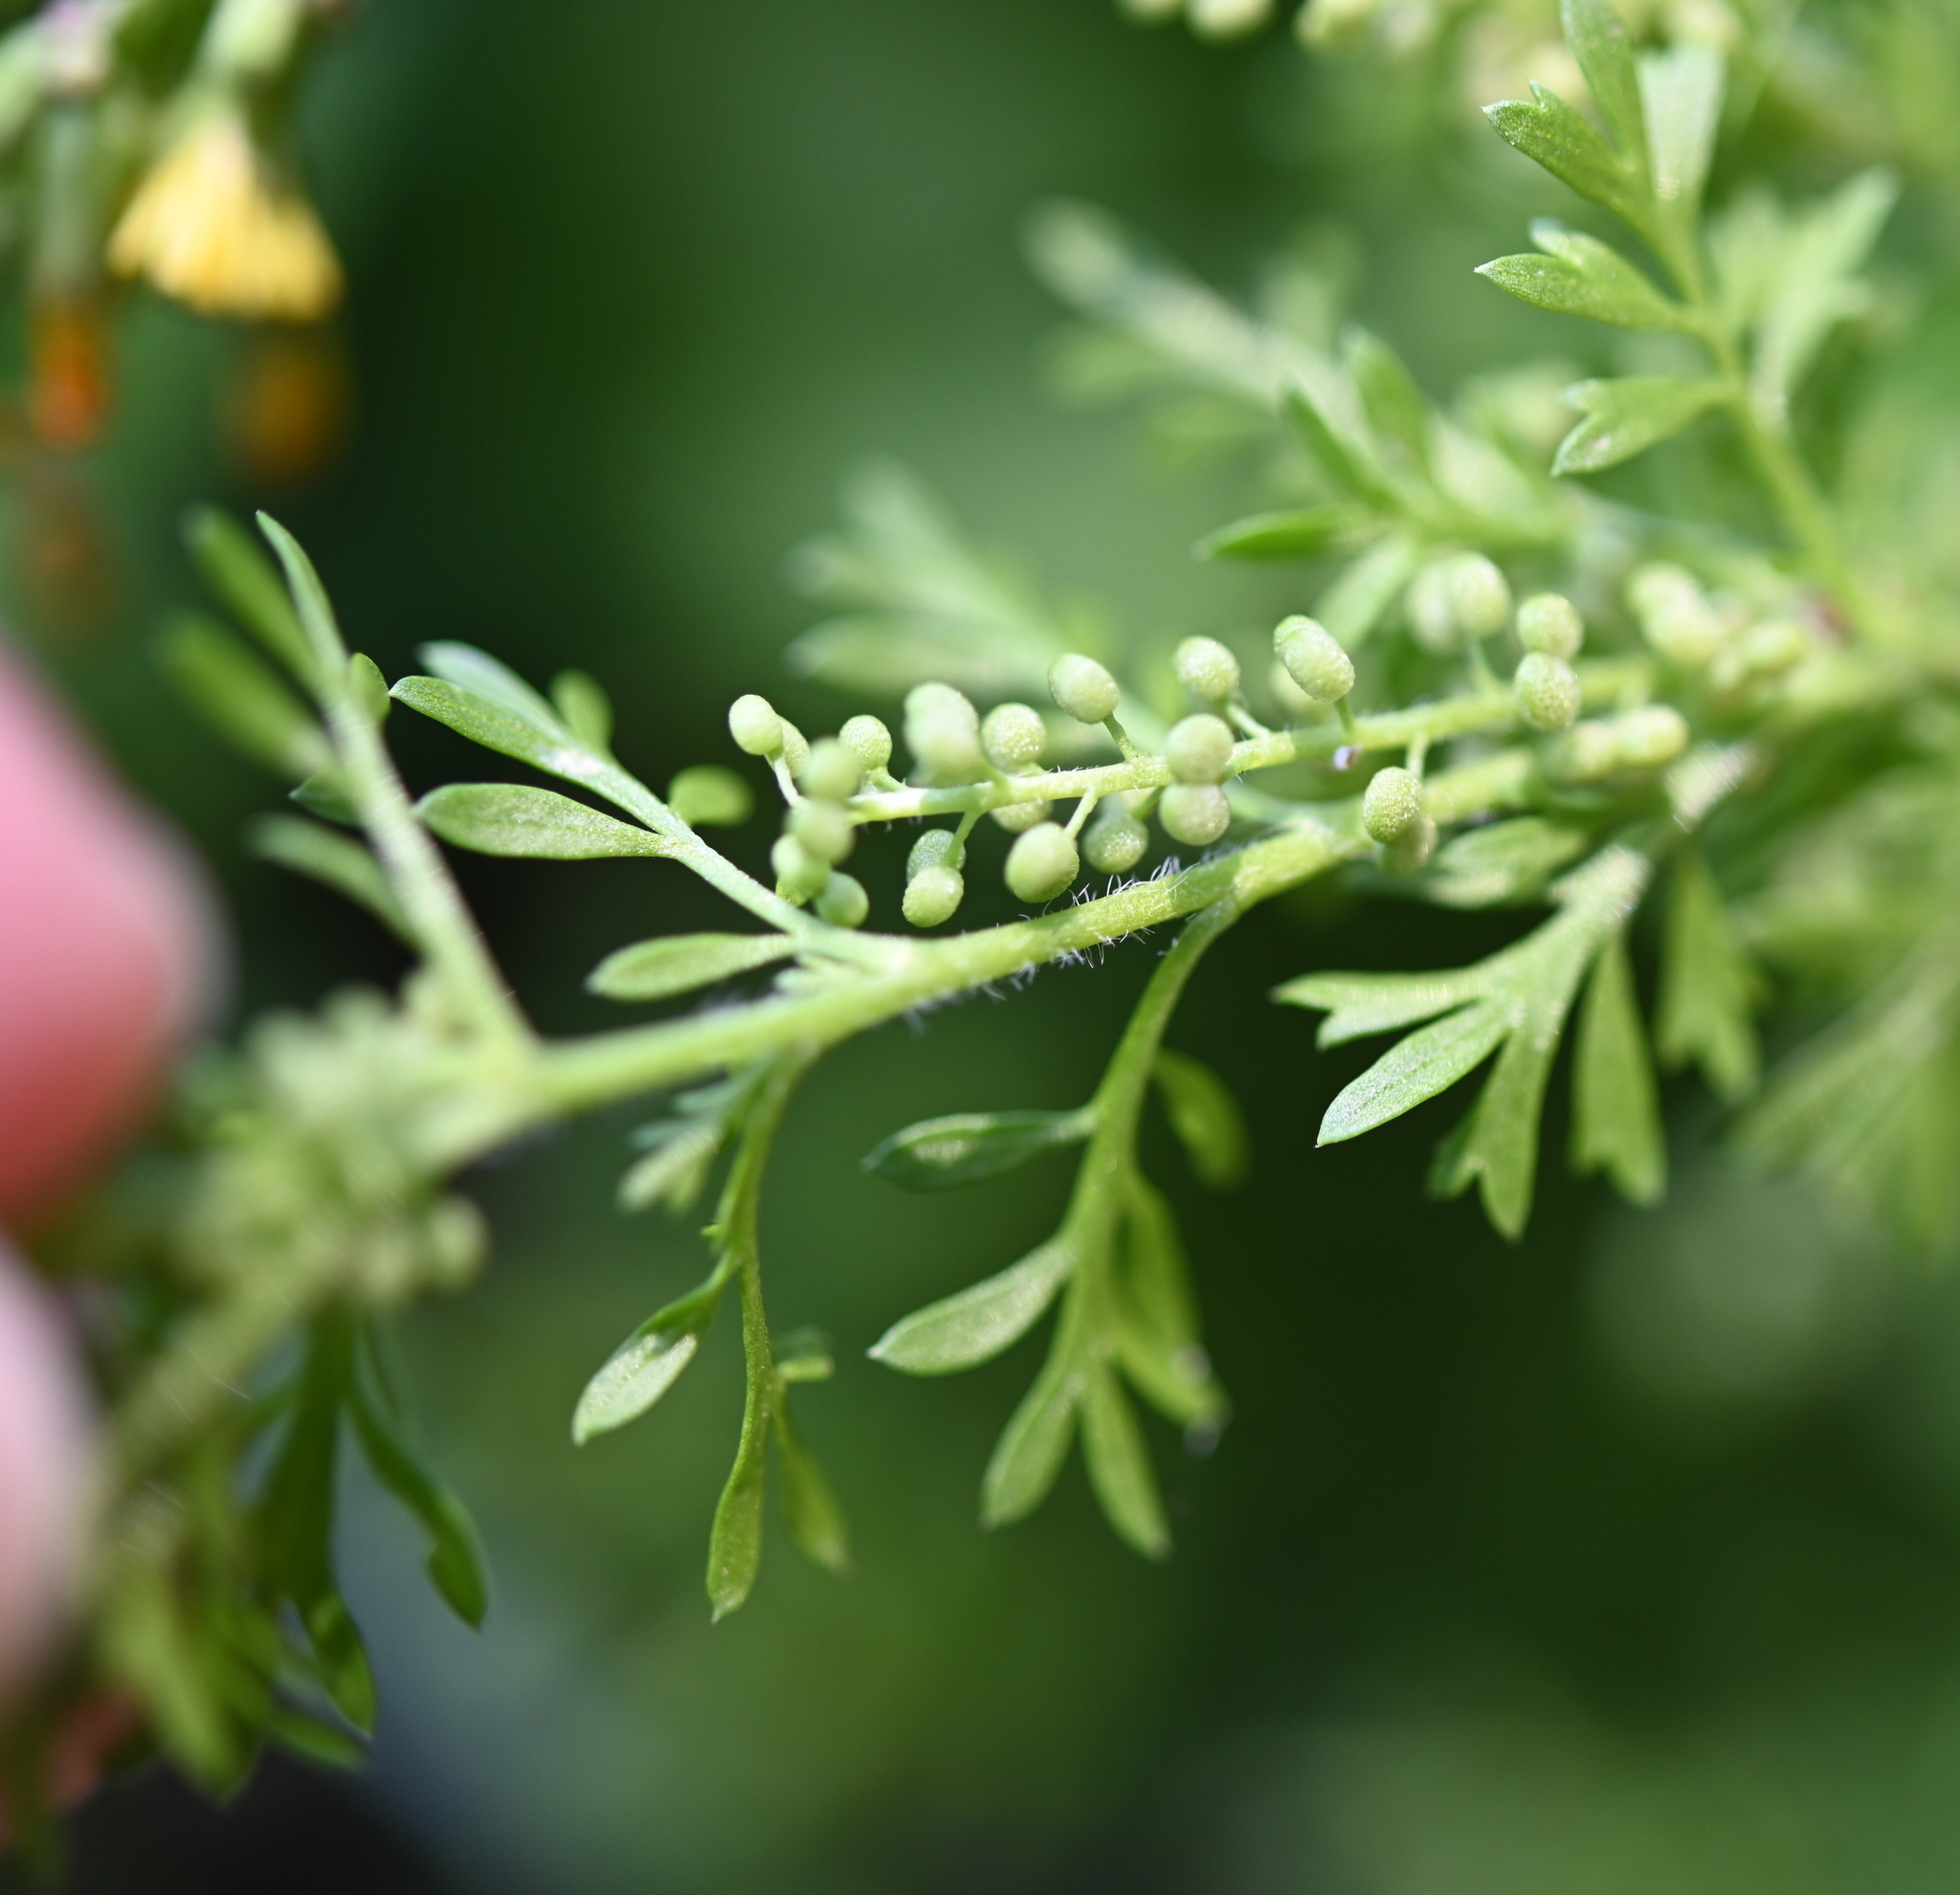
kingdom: Plantae
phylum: Tracheophyta
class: Magnoliopsida
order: Brassicales
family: Brassicaceae
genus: Lepidium
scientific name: Lepidium didymum
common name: Lesser swinecress
